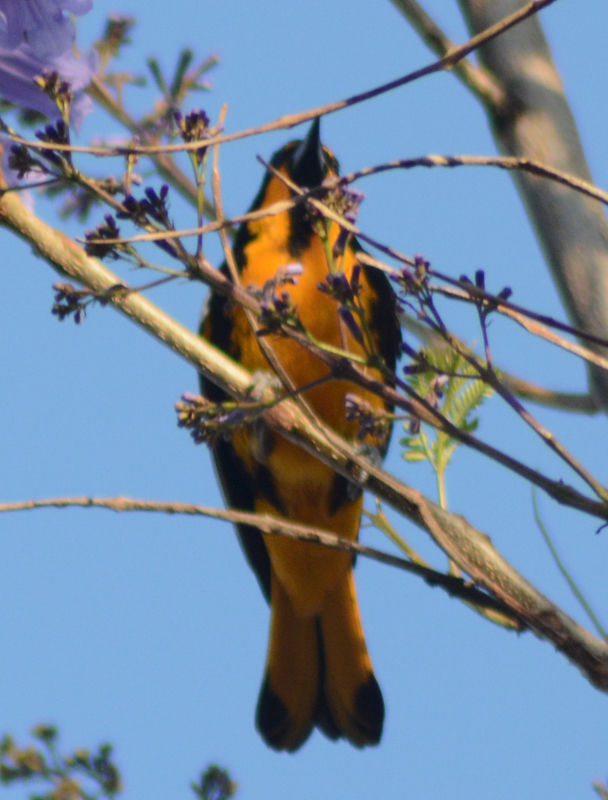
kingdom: Animalia
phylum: Chordata
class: Aves
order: Passeriformes
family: Icteridae
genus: Icterus
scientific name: Icterus abeillei
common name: Black-backed oriole
